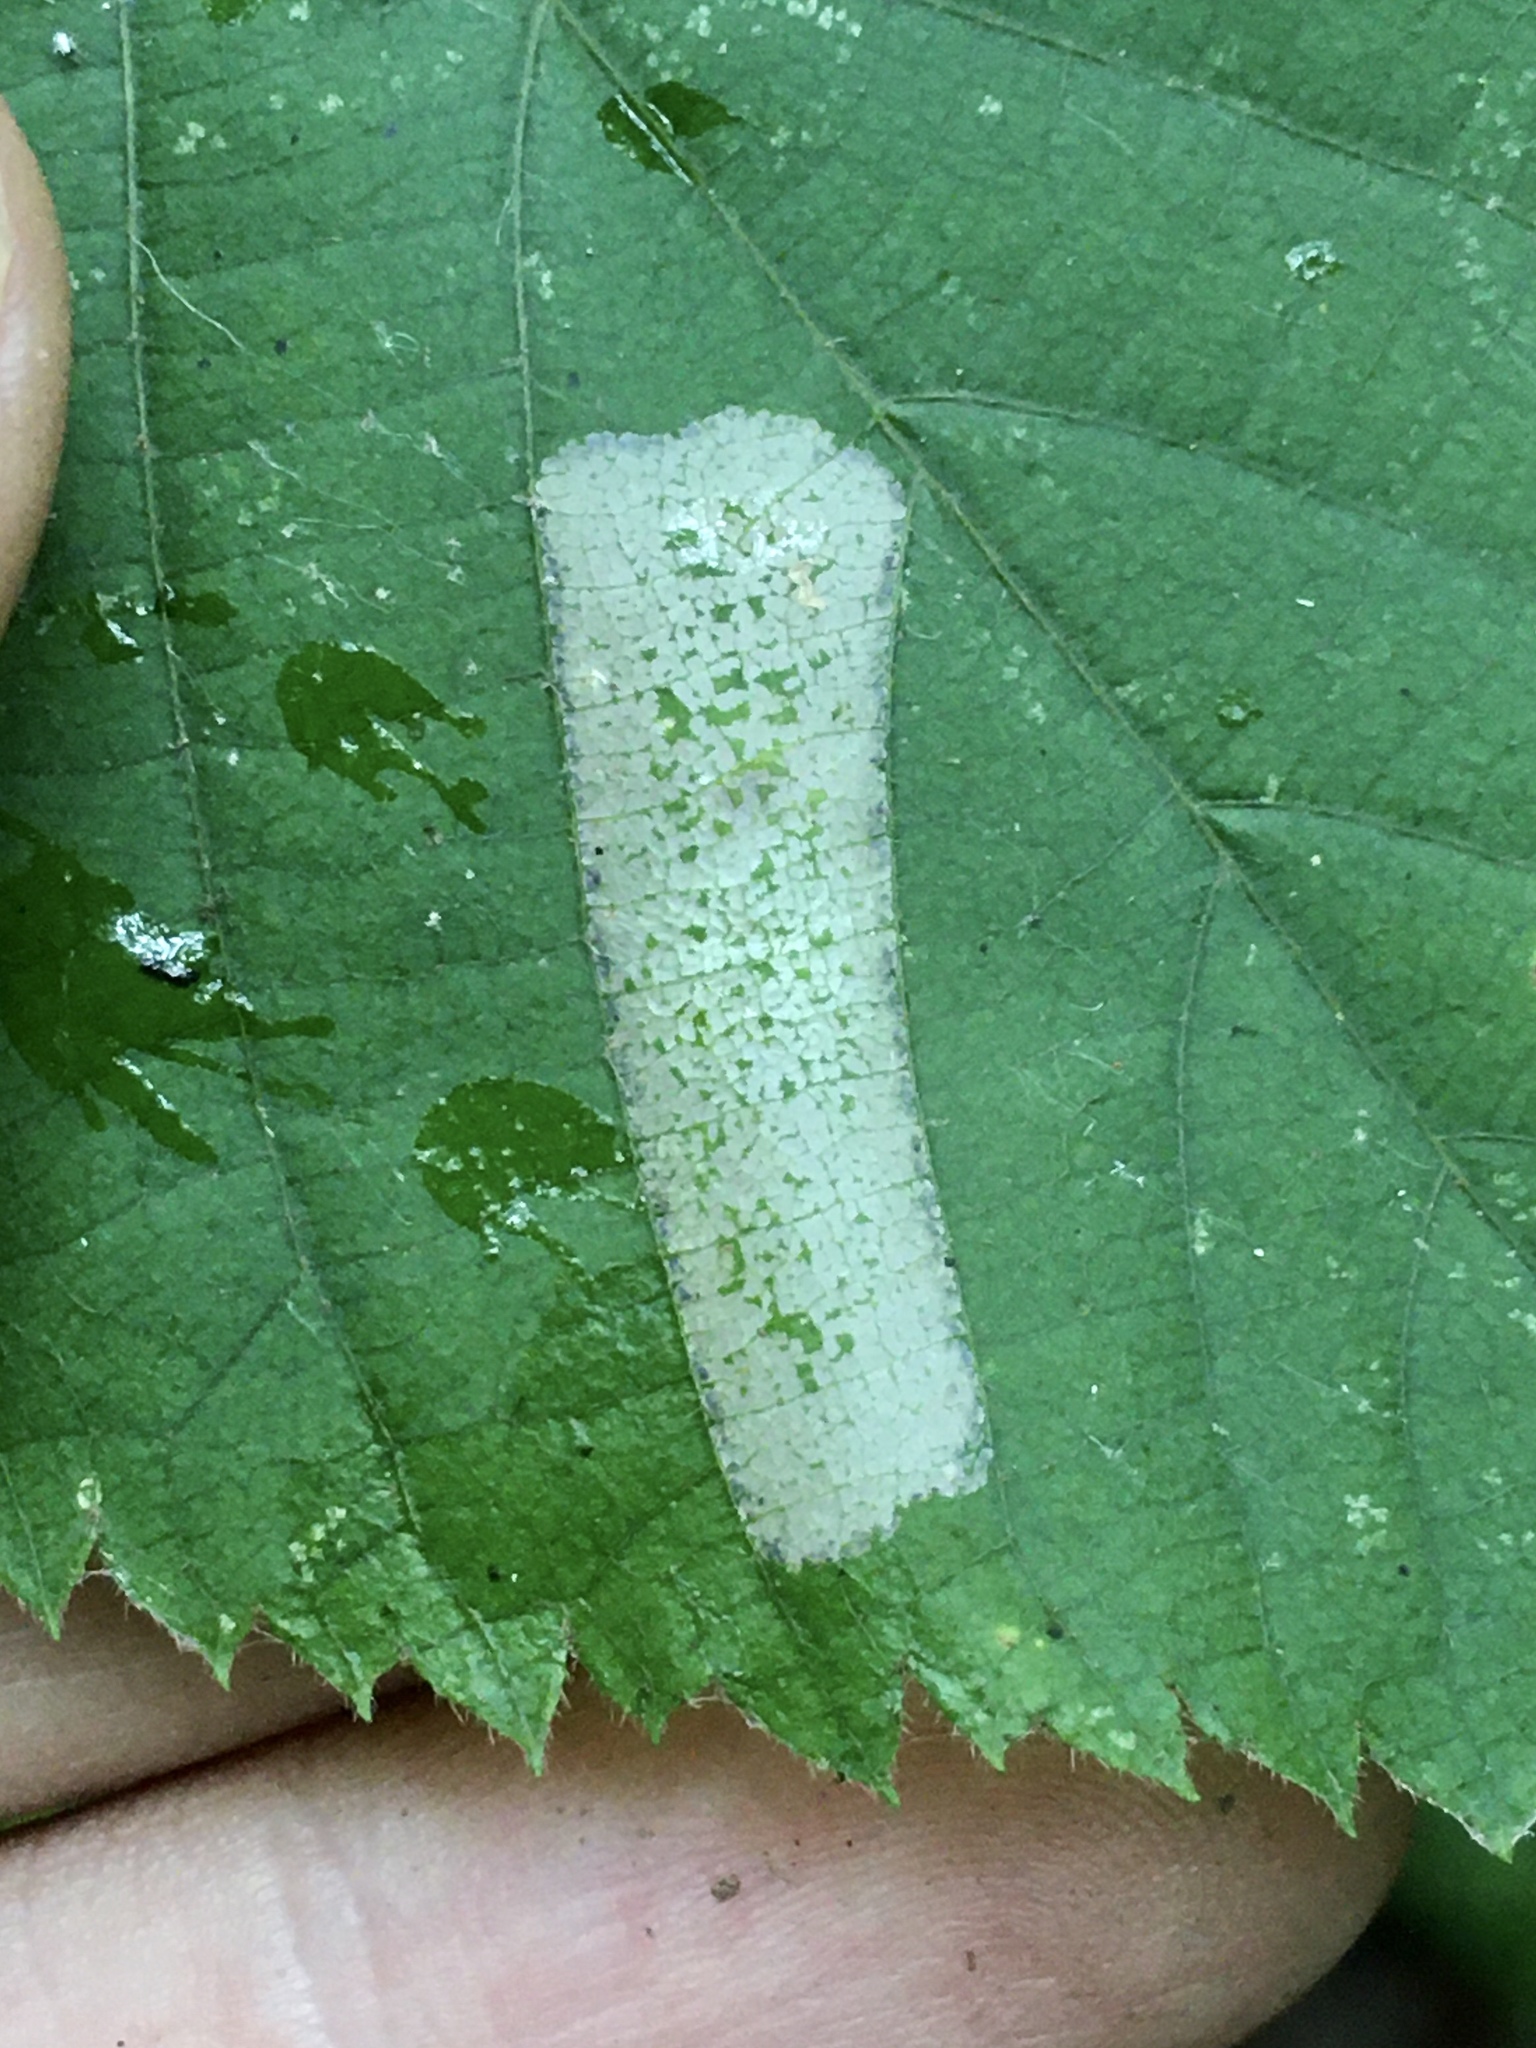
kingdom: Animalia
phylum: Arthropoda
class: Insecta
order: Lepidoptera
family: Gracillariidae
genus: Phyllonorycter
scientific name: Phyllonorycter celtifoliella
